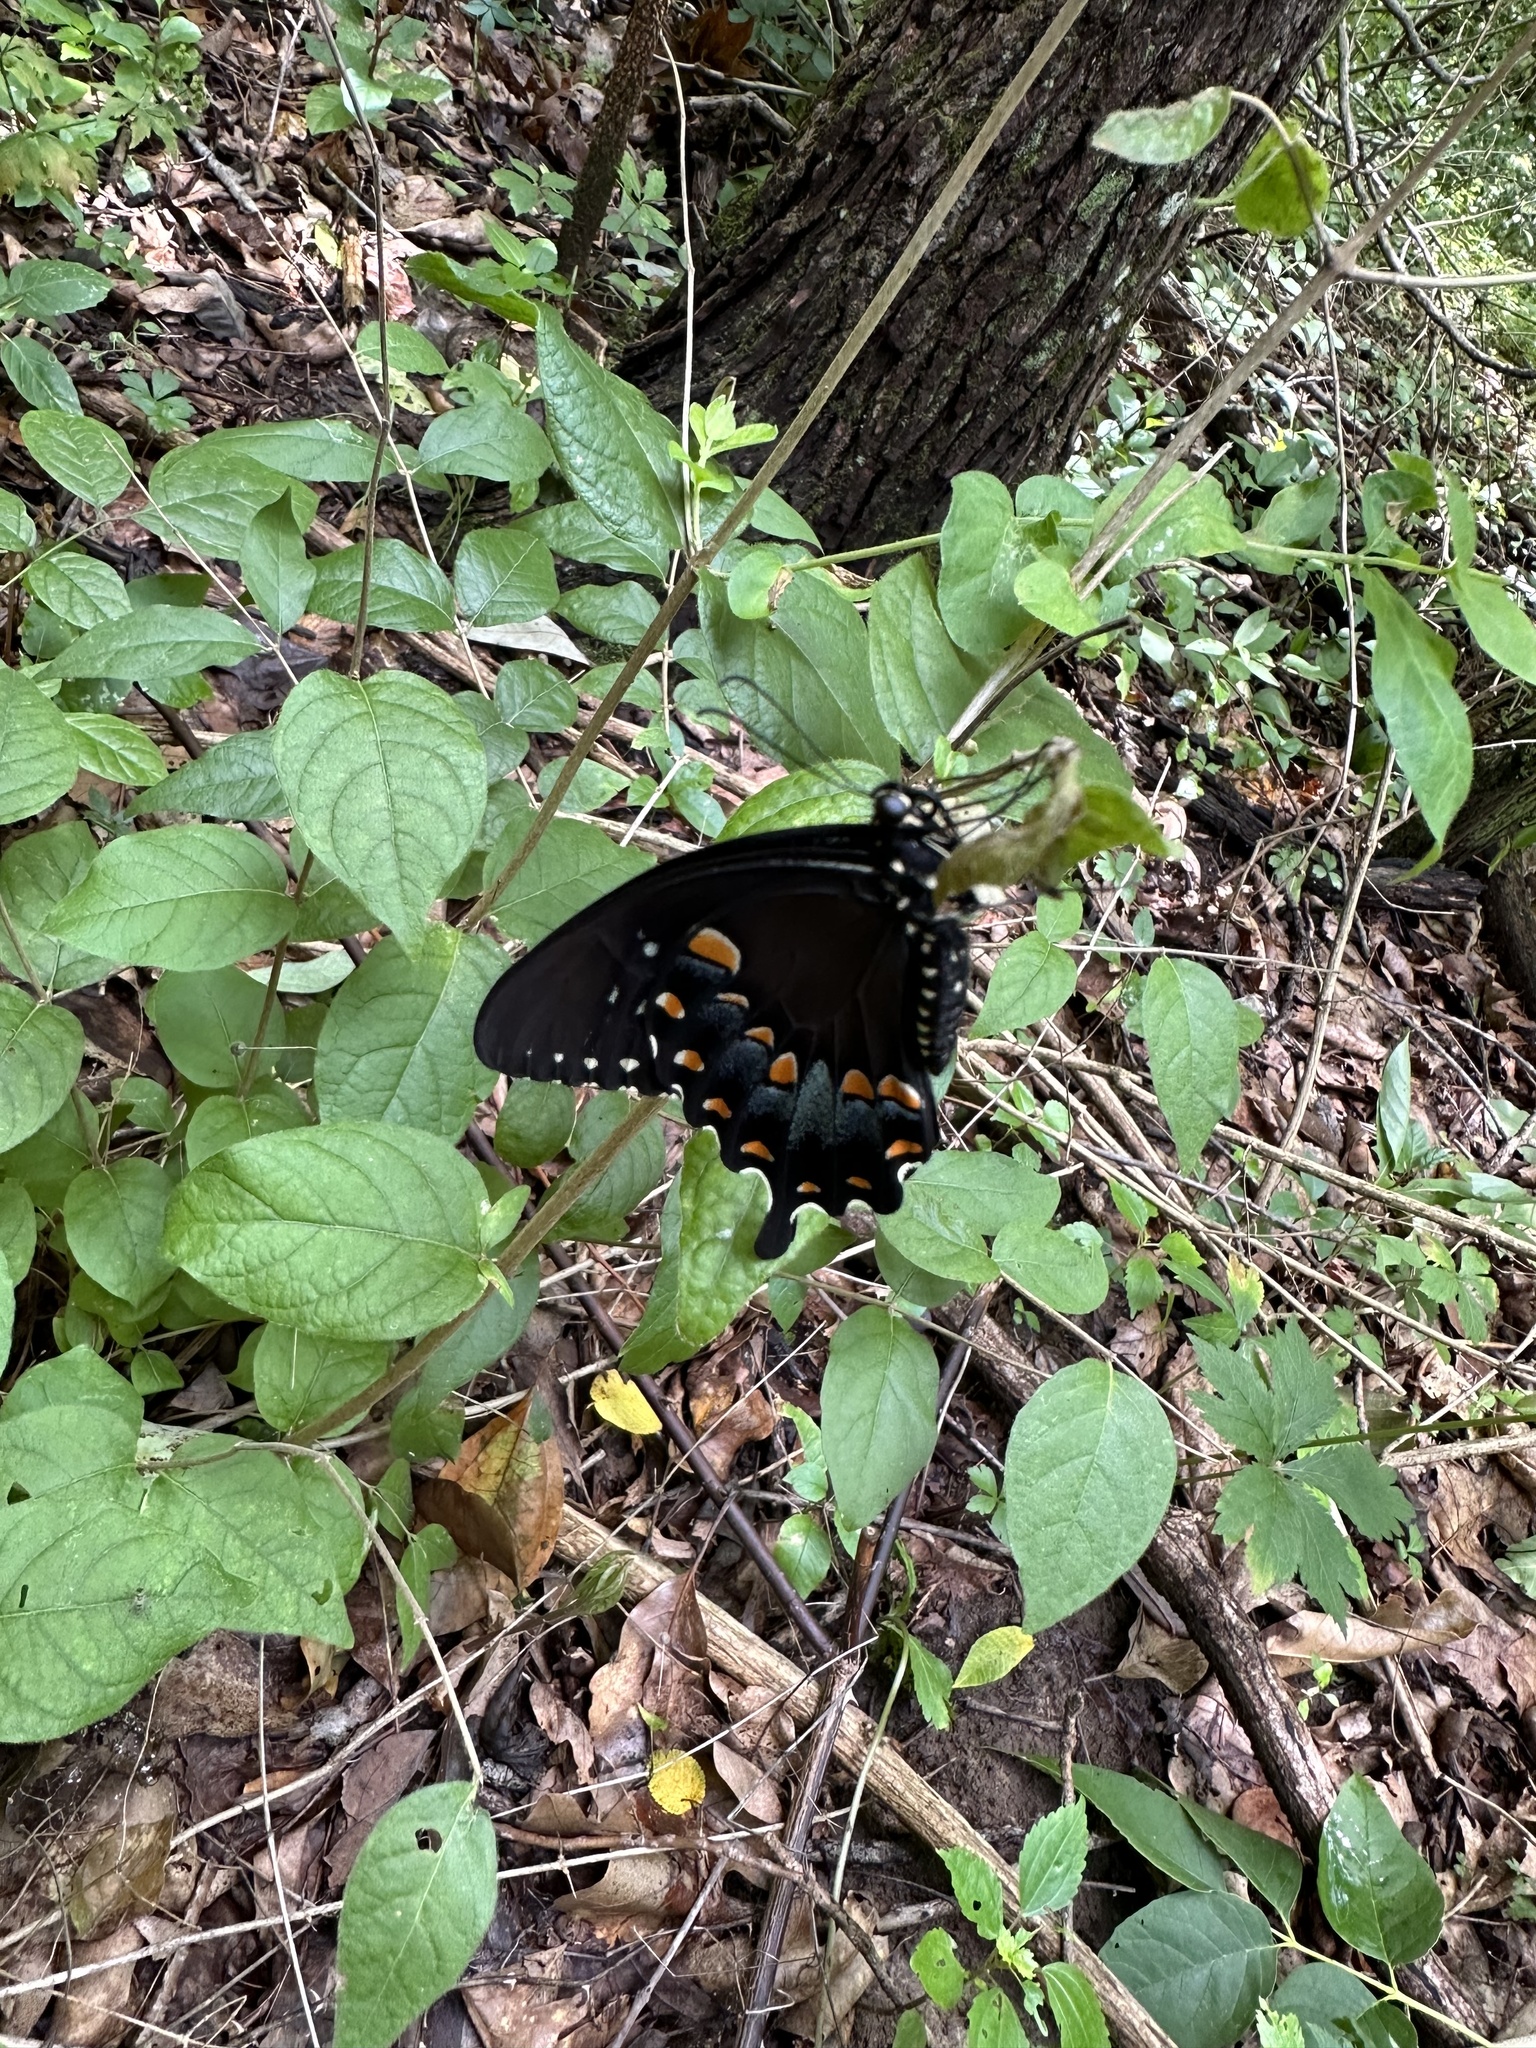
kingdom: Animalia
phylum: Arthropoda
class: Insecta
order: Lepidoptera
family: Papilionidae
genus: Papilio
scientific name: Papilio troilus
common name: Spicebush swallowtail
